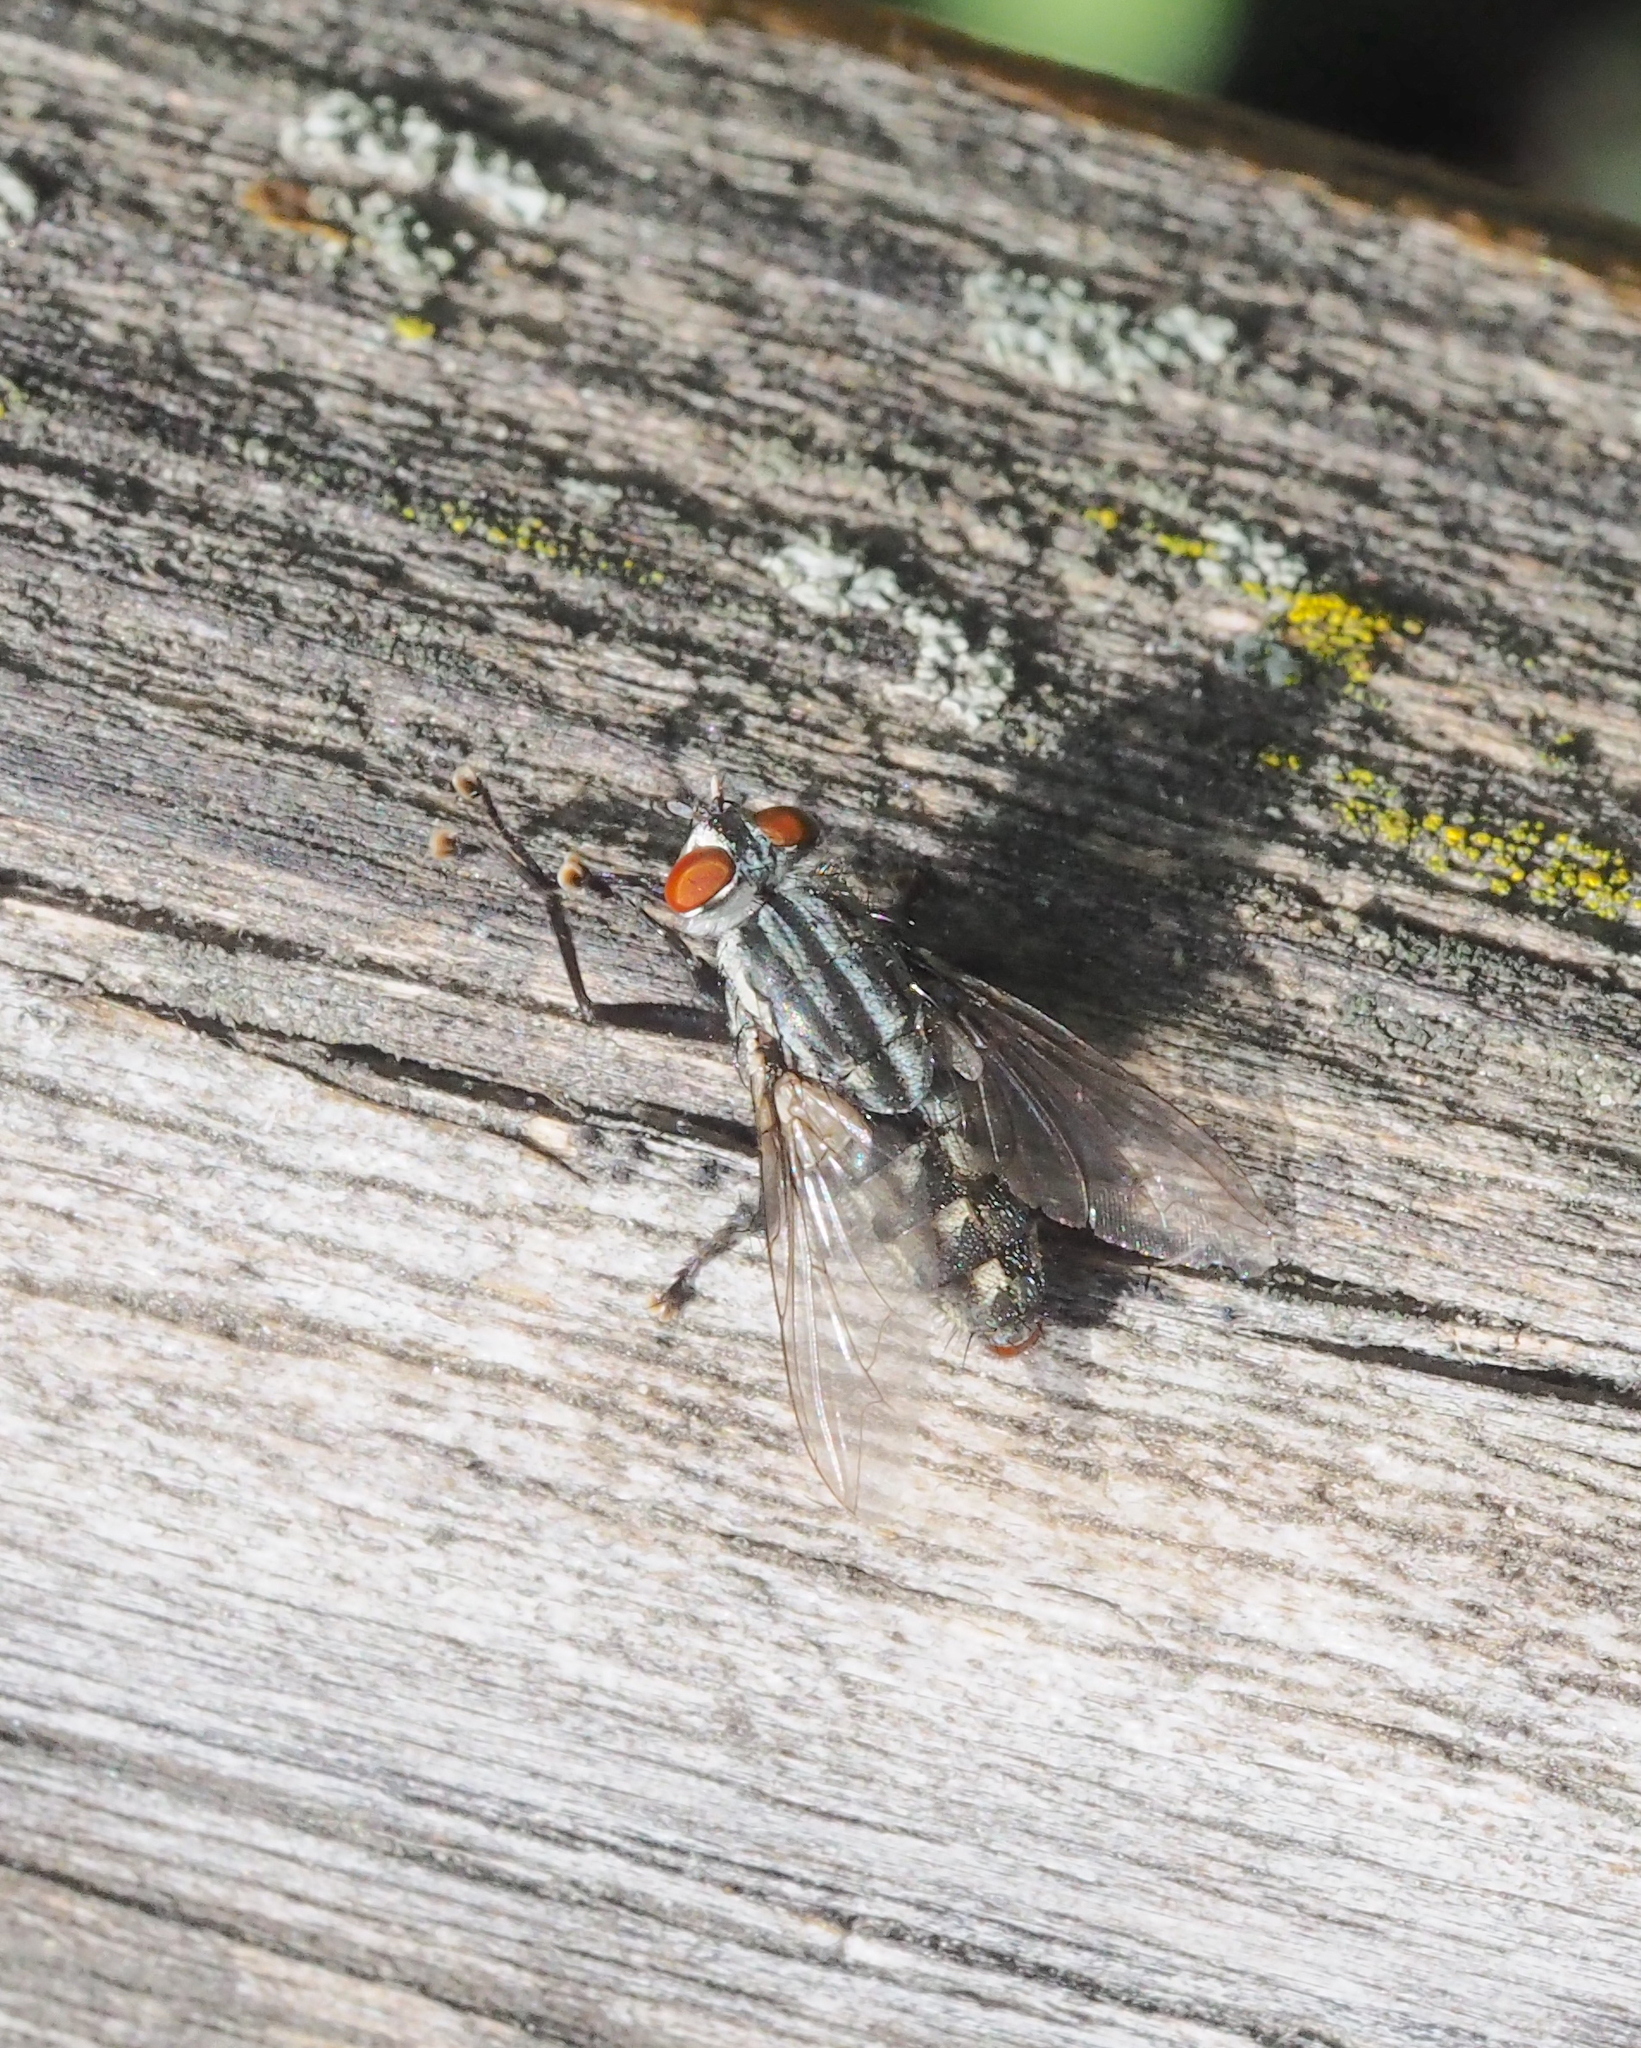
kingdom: Animalia
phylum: Arthropoda
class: Insecta
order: Diptera
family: Sarcophagidae
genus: Sarcophaga
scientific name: Sarcophaga africa
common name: Flesh fly
